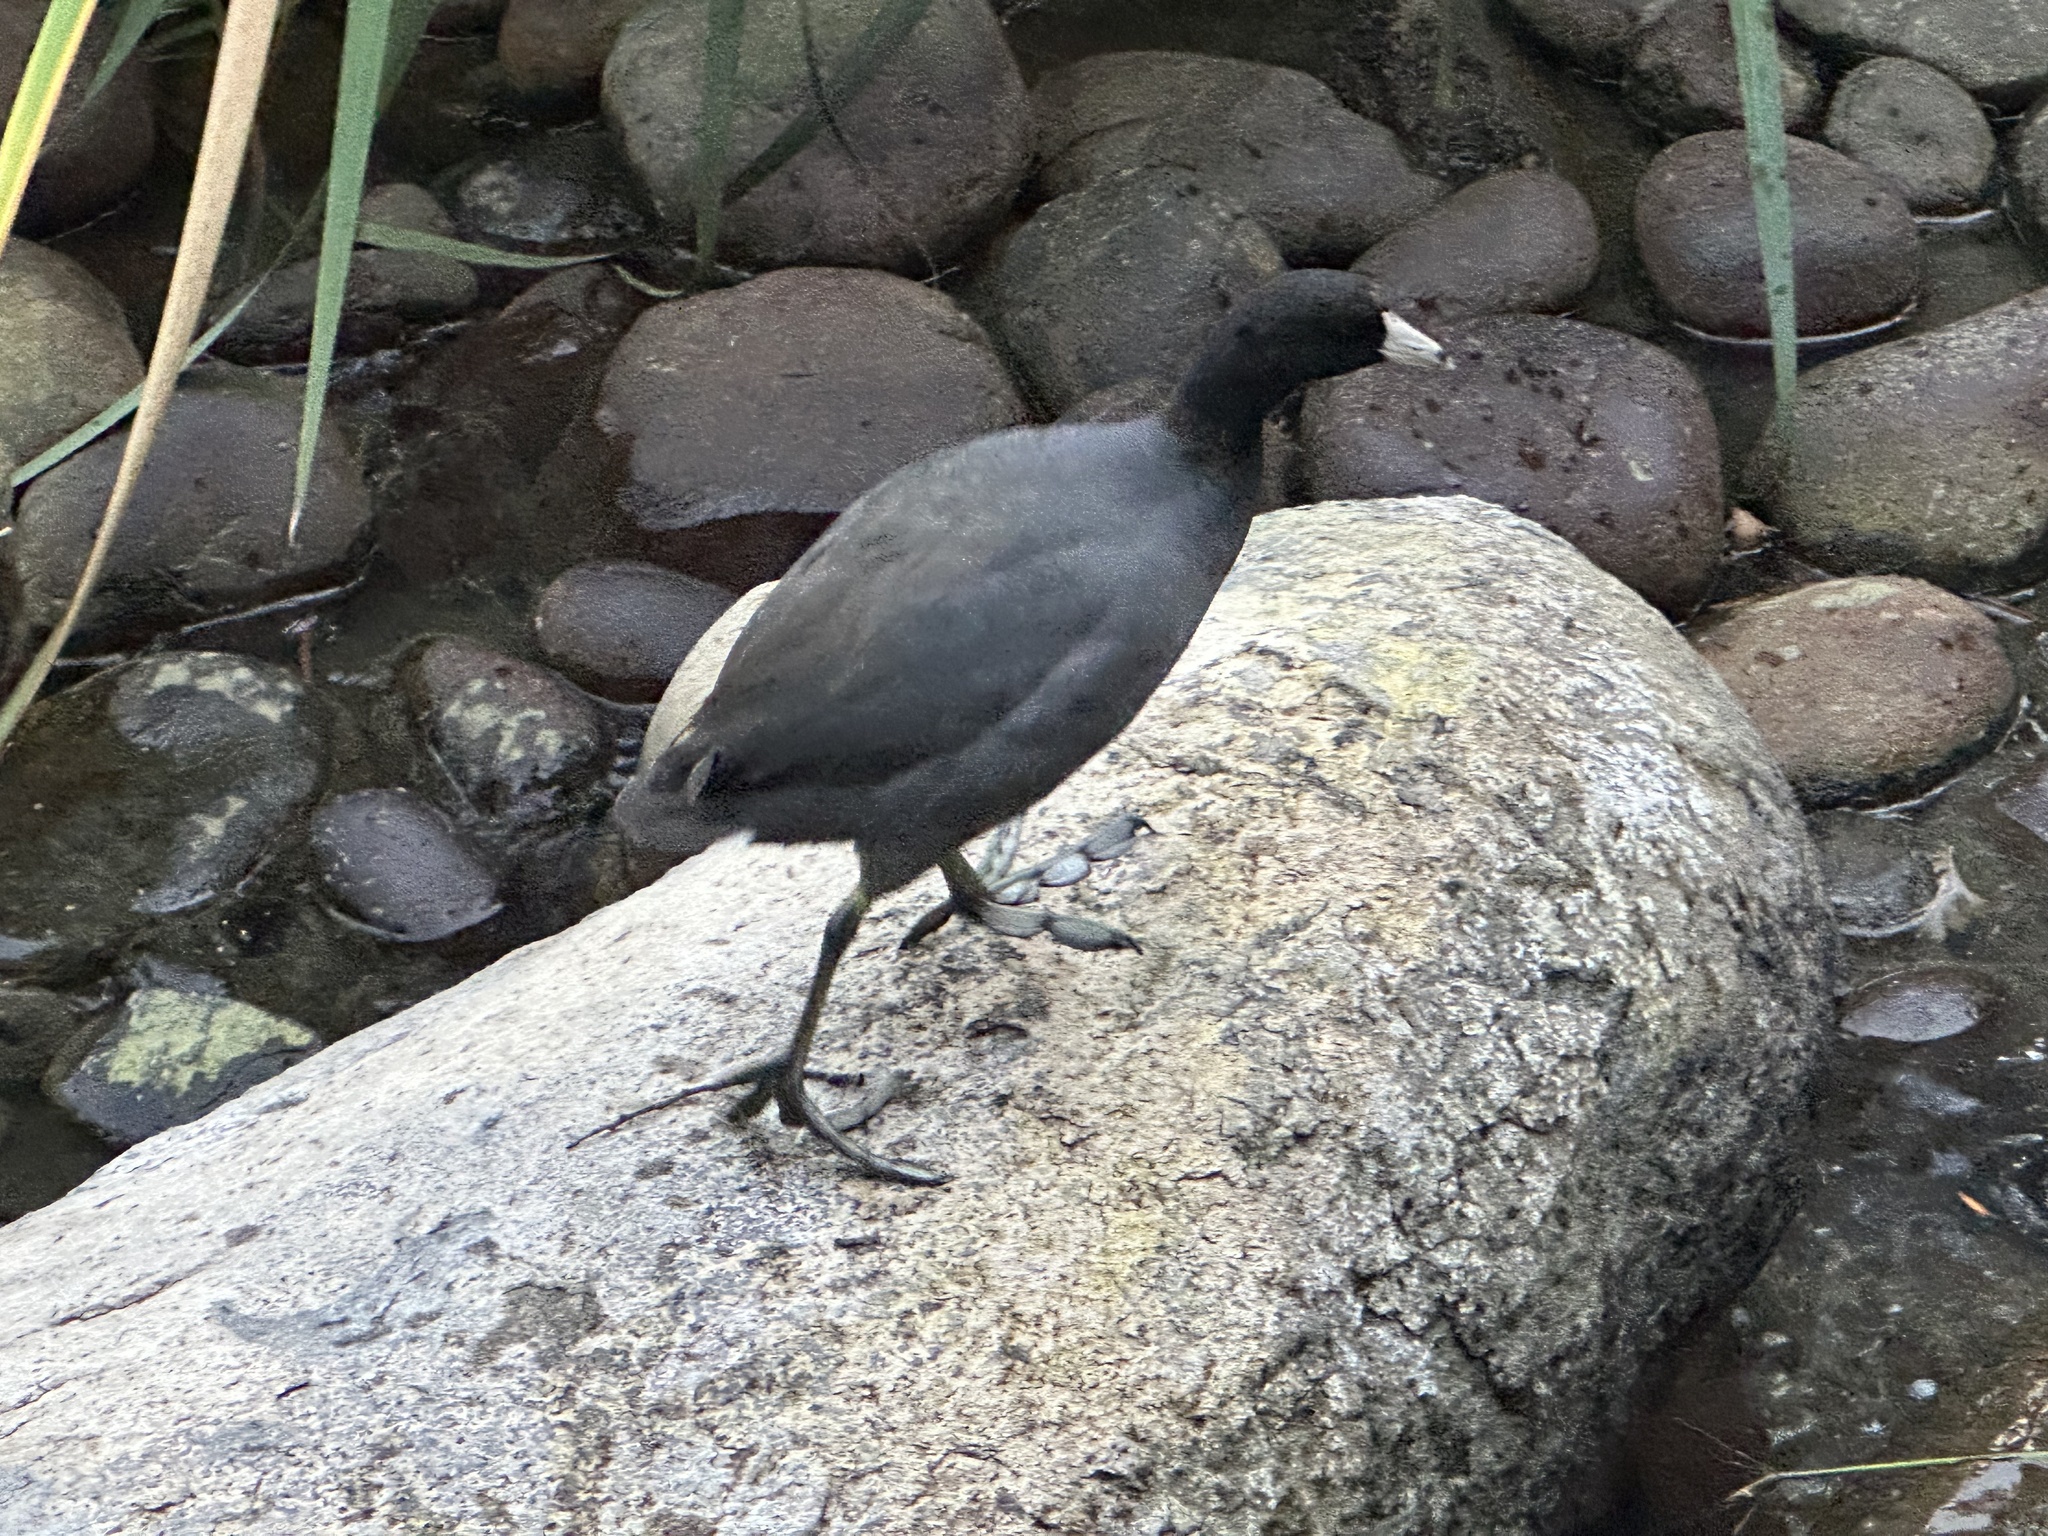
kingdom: Animalia
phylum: Chordata
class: Aves
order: Gruiformes
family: Rallidae
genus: Fulica
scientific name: Fulica americana
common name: American coot
